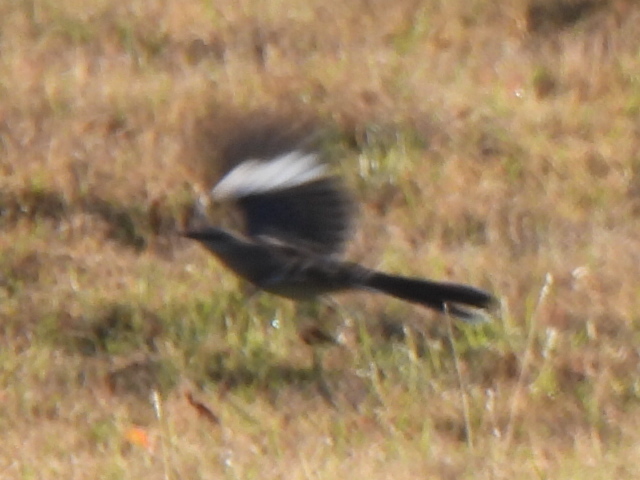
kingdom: Animalia
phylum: Chordata
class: Aves
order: Passeriformes
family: Mimidae
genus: Mimus
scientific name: Mimus polyglottos
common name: Northern mockingbird
